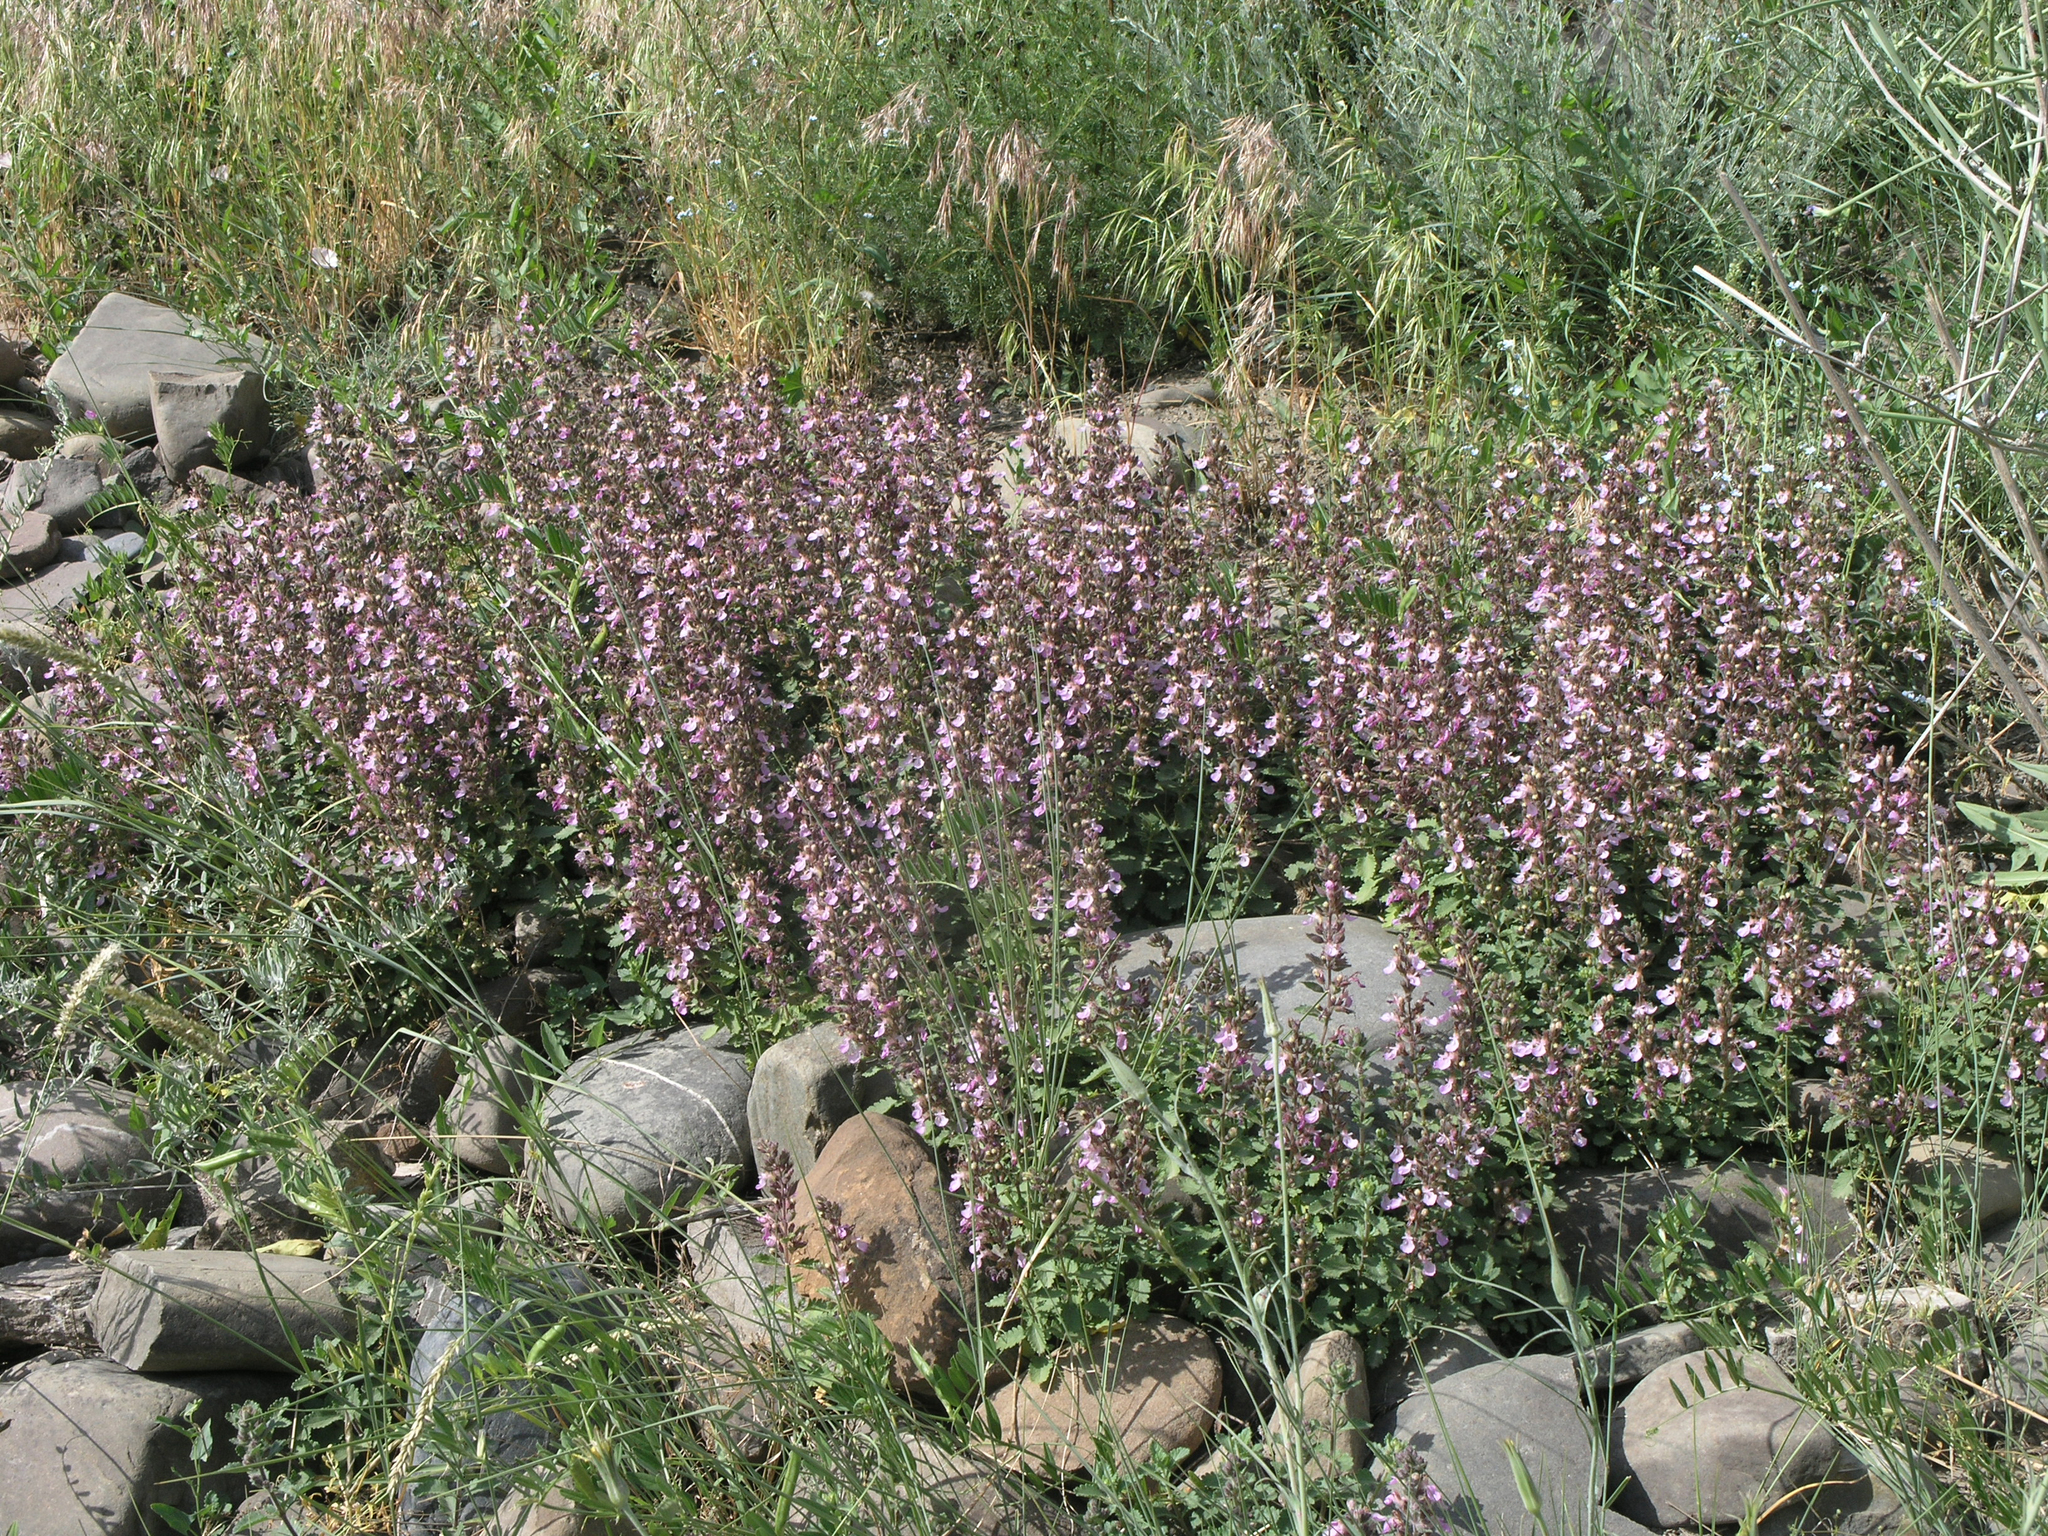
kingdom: Plantae
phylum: Tracheophyta
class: Magnoliopsida
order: Lamiales
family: Lamiaceae
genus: Teucrium
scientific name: Teucrium chamaedrys
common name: Wall germander
